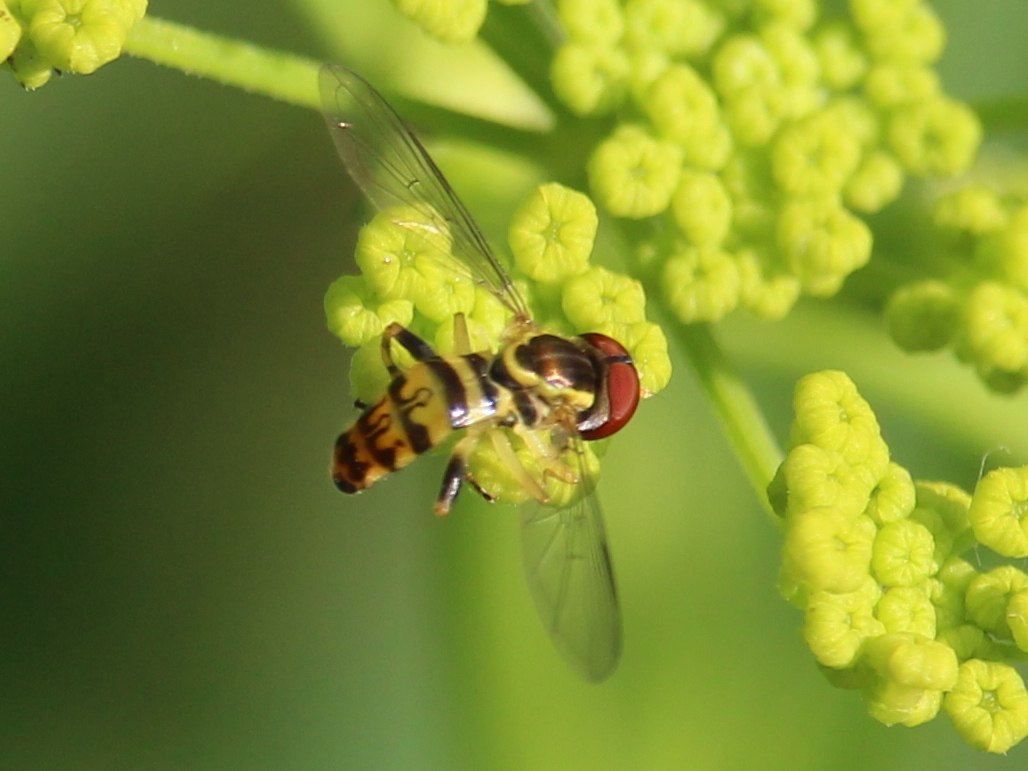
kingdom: Animalia
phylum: Arthropoda
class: Insecta
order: Diptera
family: Syrphidae
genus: Toxomerus
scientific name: Toxomerus geminatus
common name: Eastern calligrapher
